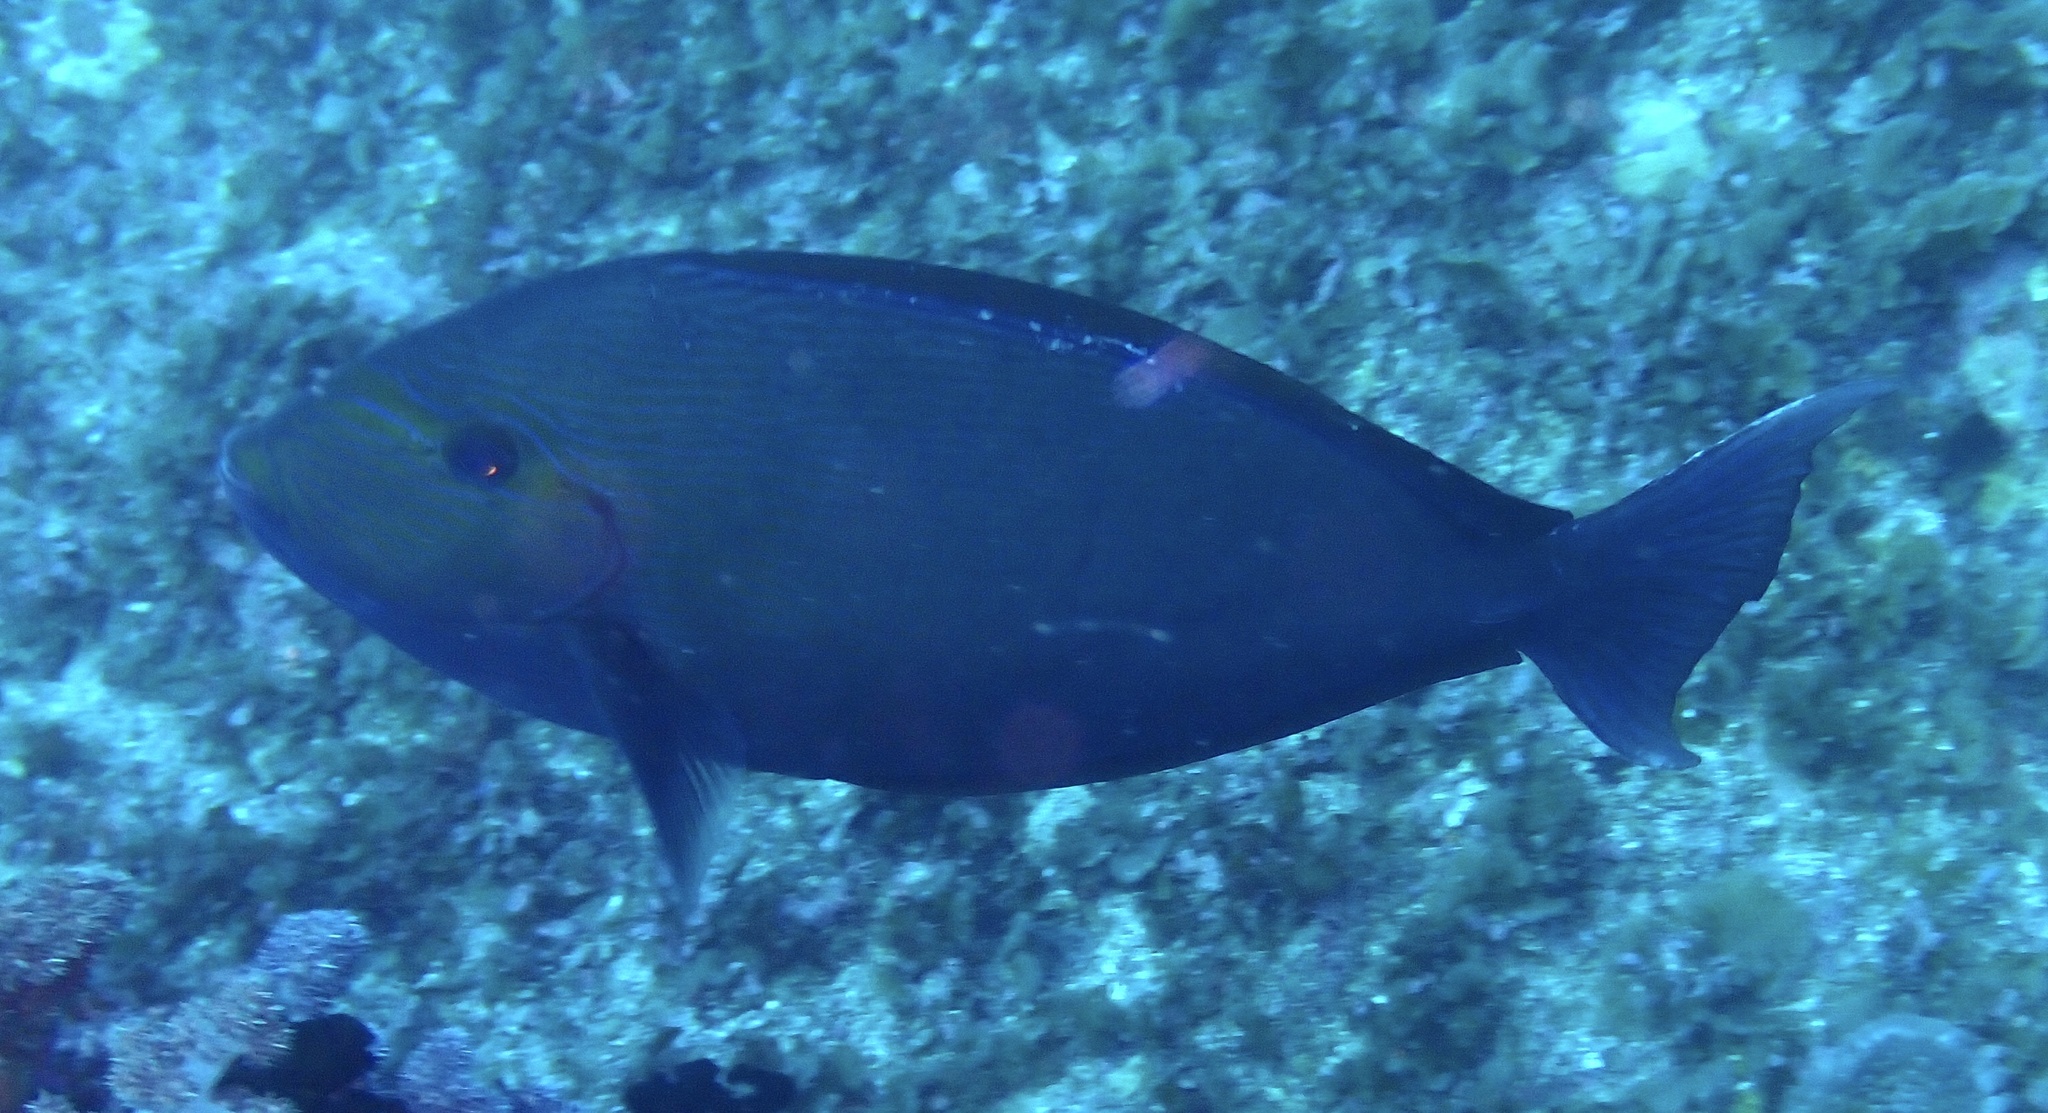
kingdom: Animalia
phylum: Chordata
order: Perciformes
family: Acanthuridae
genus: Acanthurus
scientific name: Acanthurus mata
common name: Bleeker's surgeonfish
